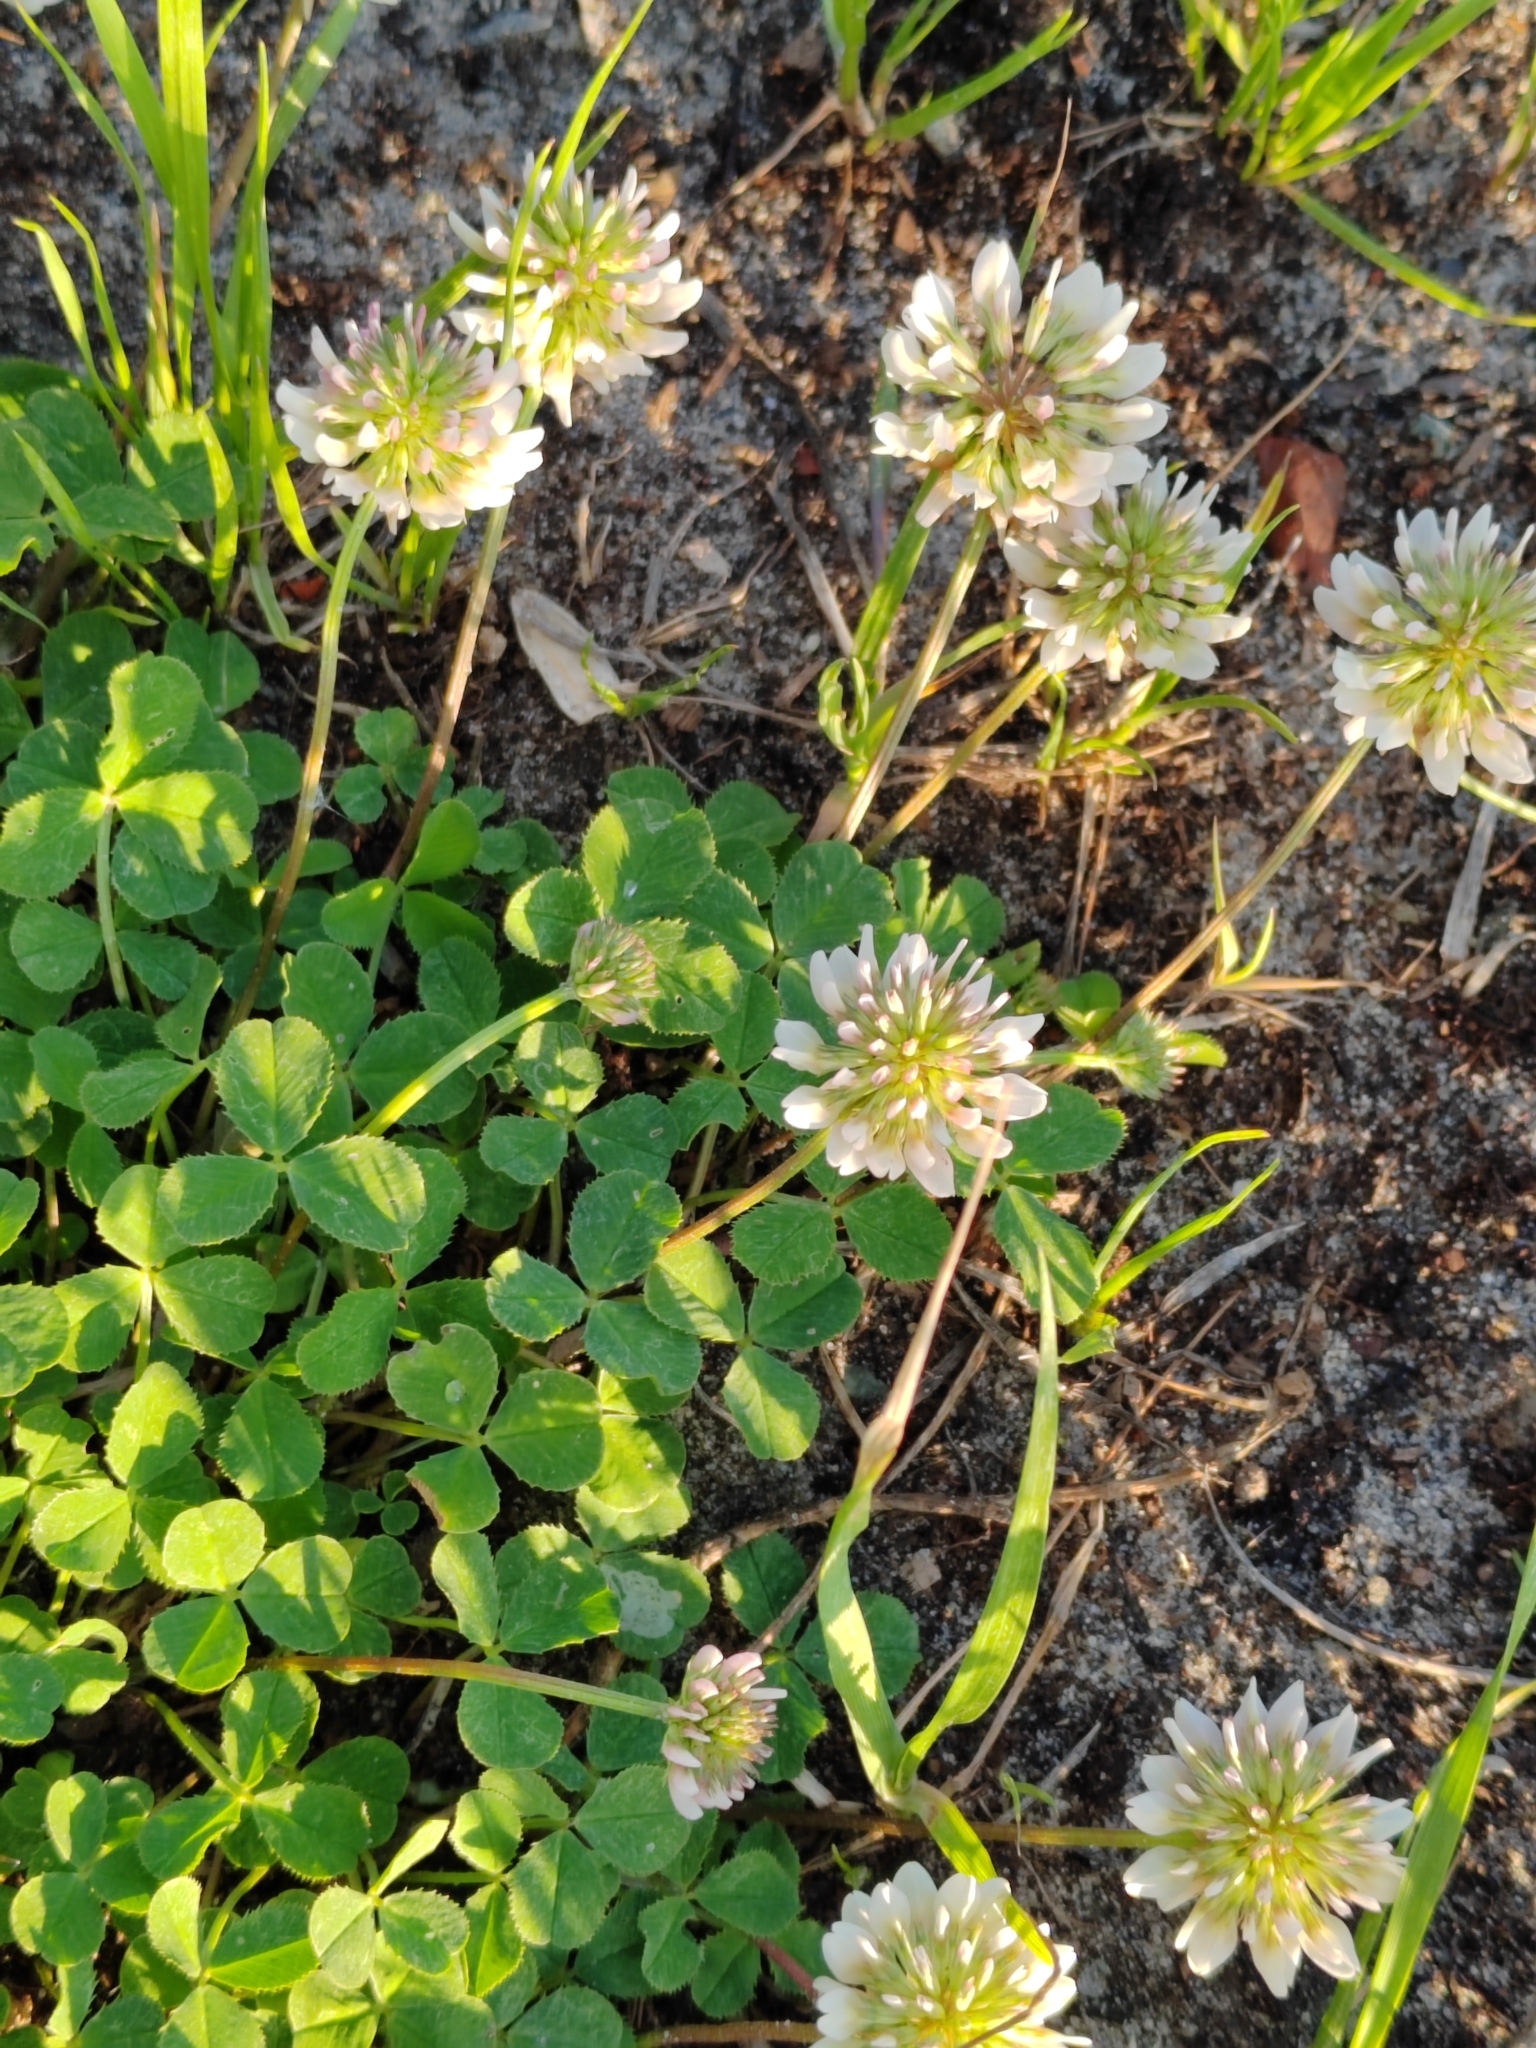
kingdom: Plantae
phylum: Tracheophyta
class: Magnoliopsida
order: Fabales
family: Fabaceae
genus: Trifolium
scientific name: Trifolium repens
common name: White clover
